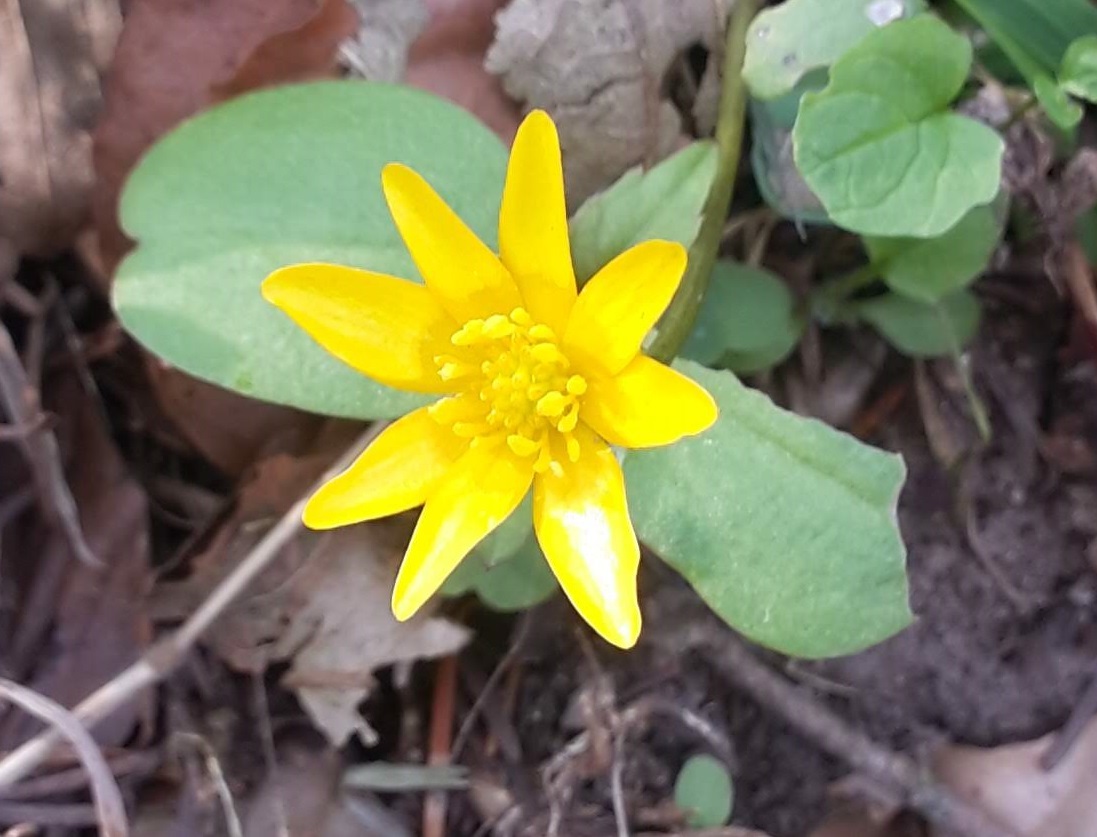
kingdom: Plantae
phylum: Tracheophyta
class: Magnoliopsida
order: Ranunculales
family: Ranunculaceae
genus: Ficaria
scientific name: Ficaria verna
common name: Lesser celandine
